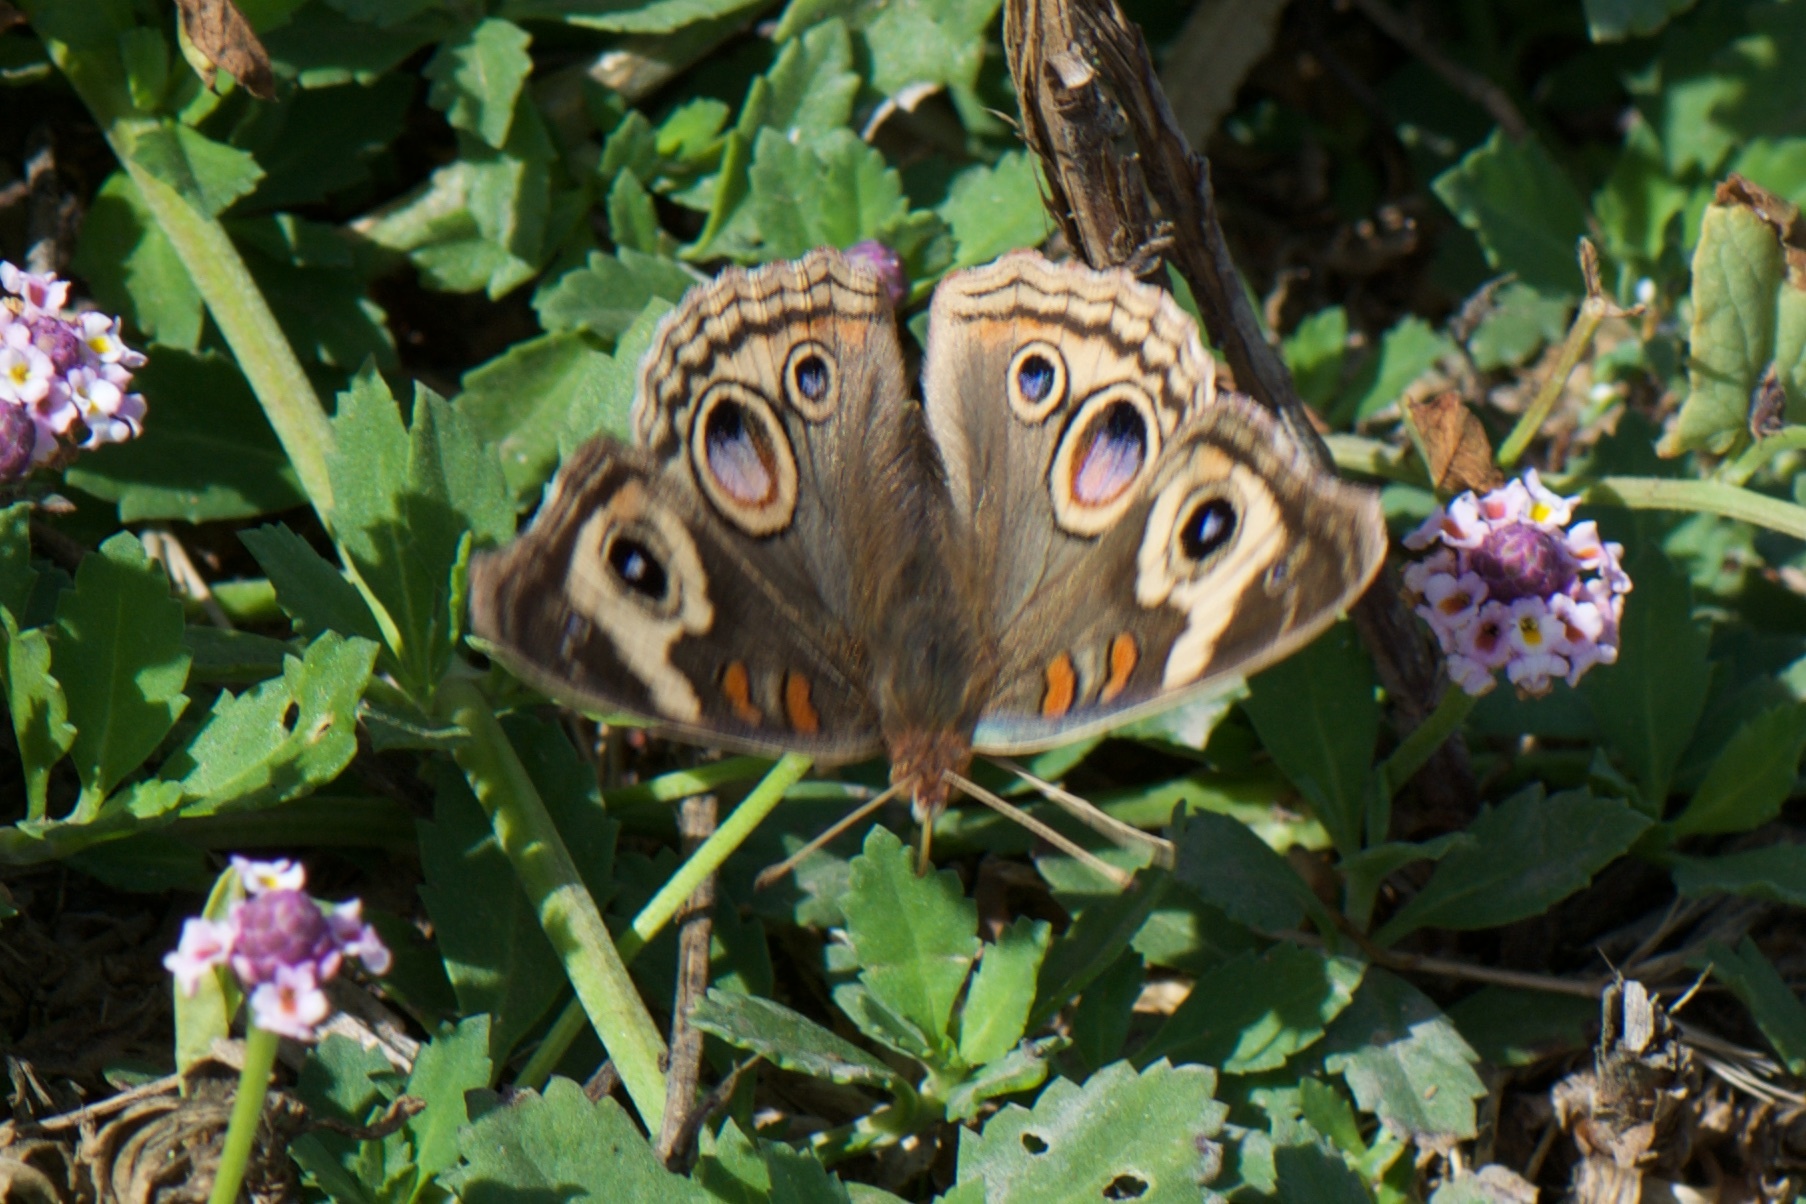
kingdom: Animalia
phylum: Arthropoda
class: Insecta
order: Lepidoptera
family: Nymphalidae
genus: Junonia
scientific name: Junonia grisea
